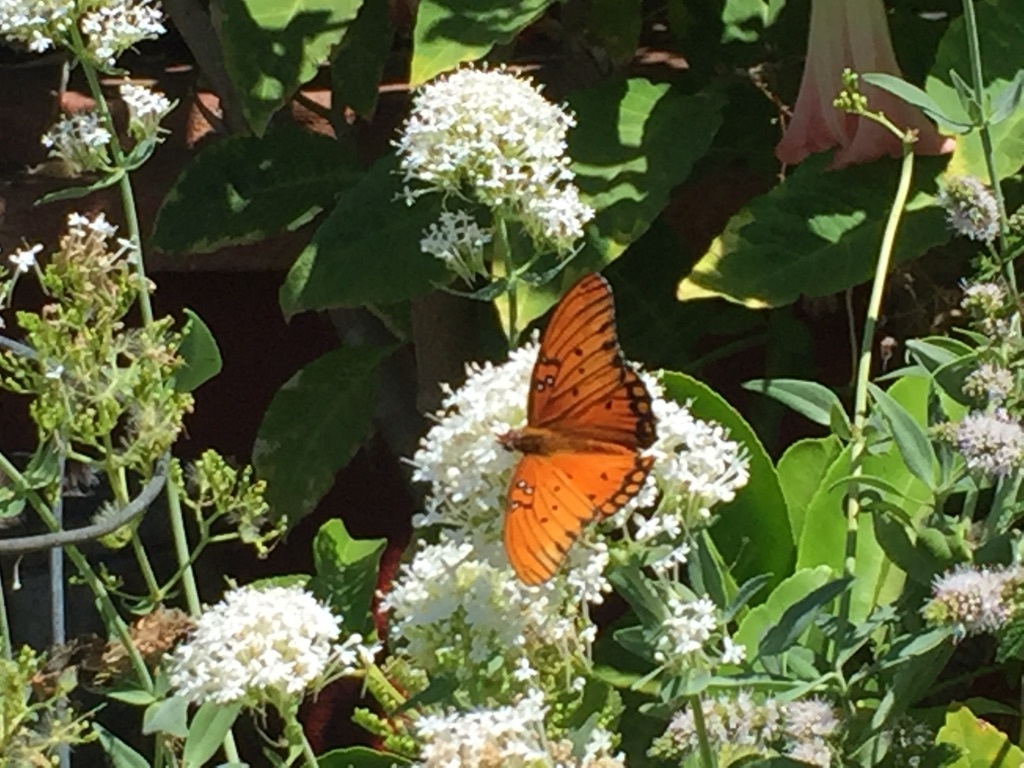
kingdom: Animalia
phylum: Arthropoda
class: Insecta
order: Lepidoptera
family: Nymphalidae
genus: Dione
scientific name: Dione vanillae
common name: Gulf fritillary
